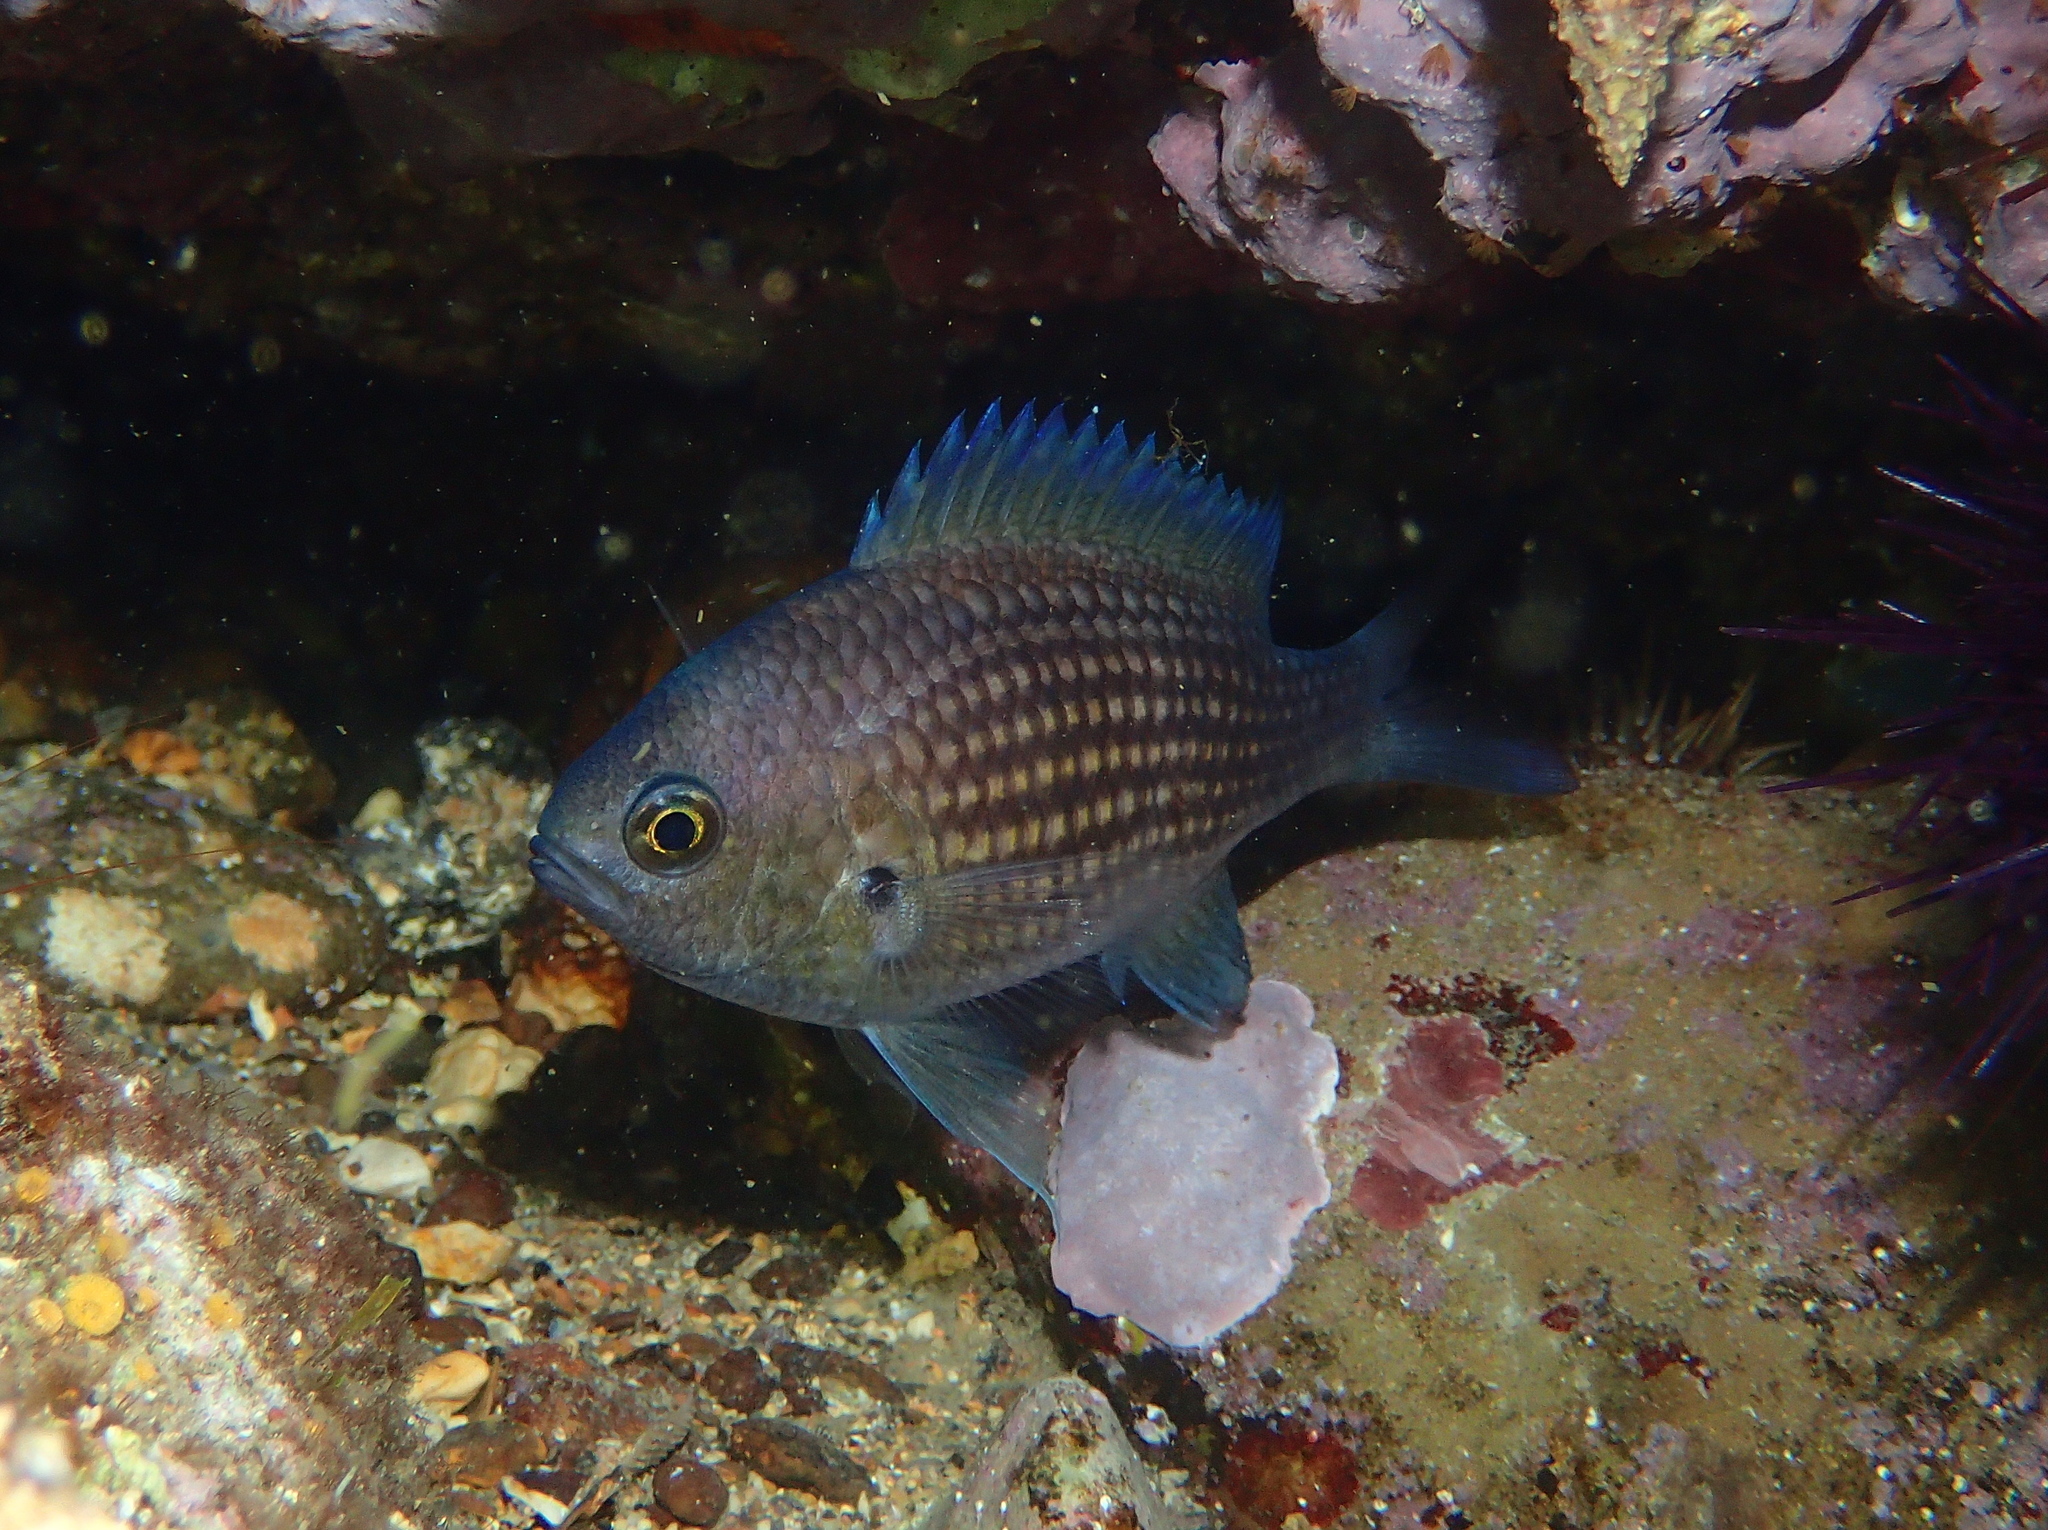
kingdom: Animalia
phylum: Chordata
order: Perciformes
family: Pomacentridae
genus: Chromis
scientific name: Chromis chromis
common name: Damselfish
